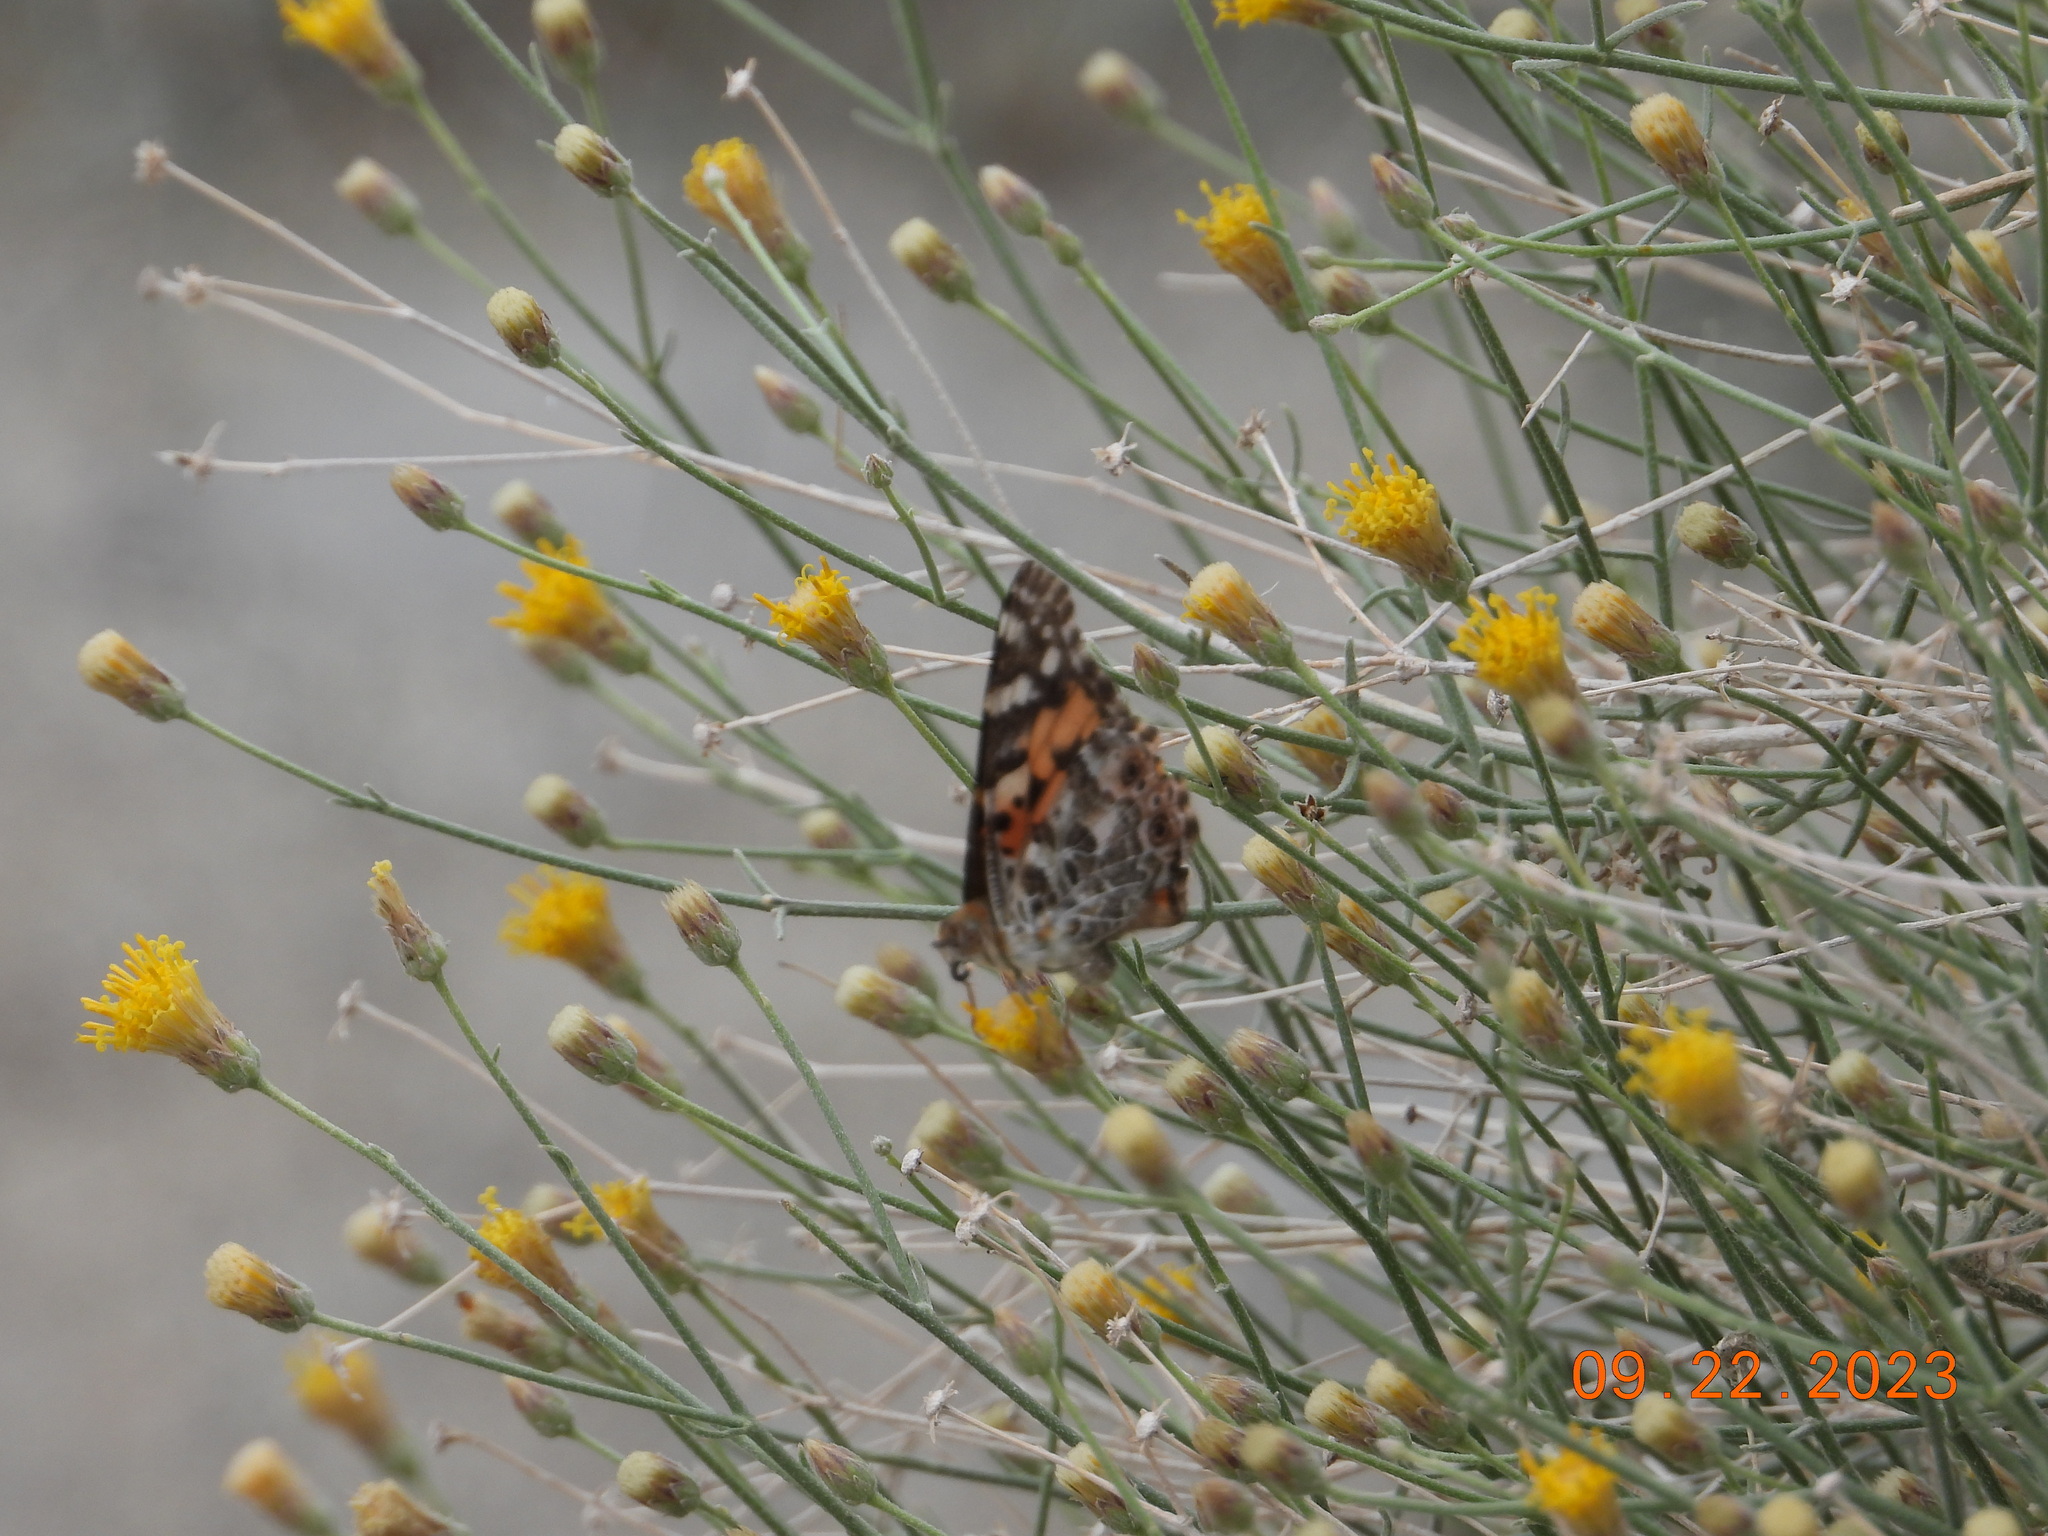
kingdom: Animalia
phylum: Arthropoda
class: Insecta
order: Lepidoptera
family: Nymphalidae
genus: Vanessa
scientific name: Vanessa cardui
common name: Painted lady
